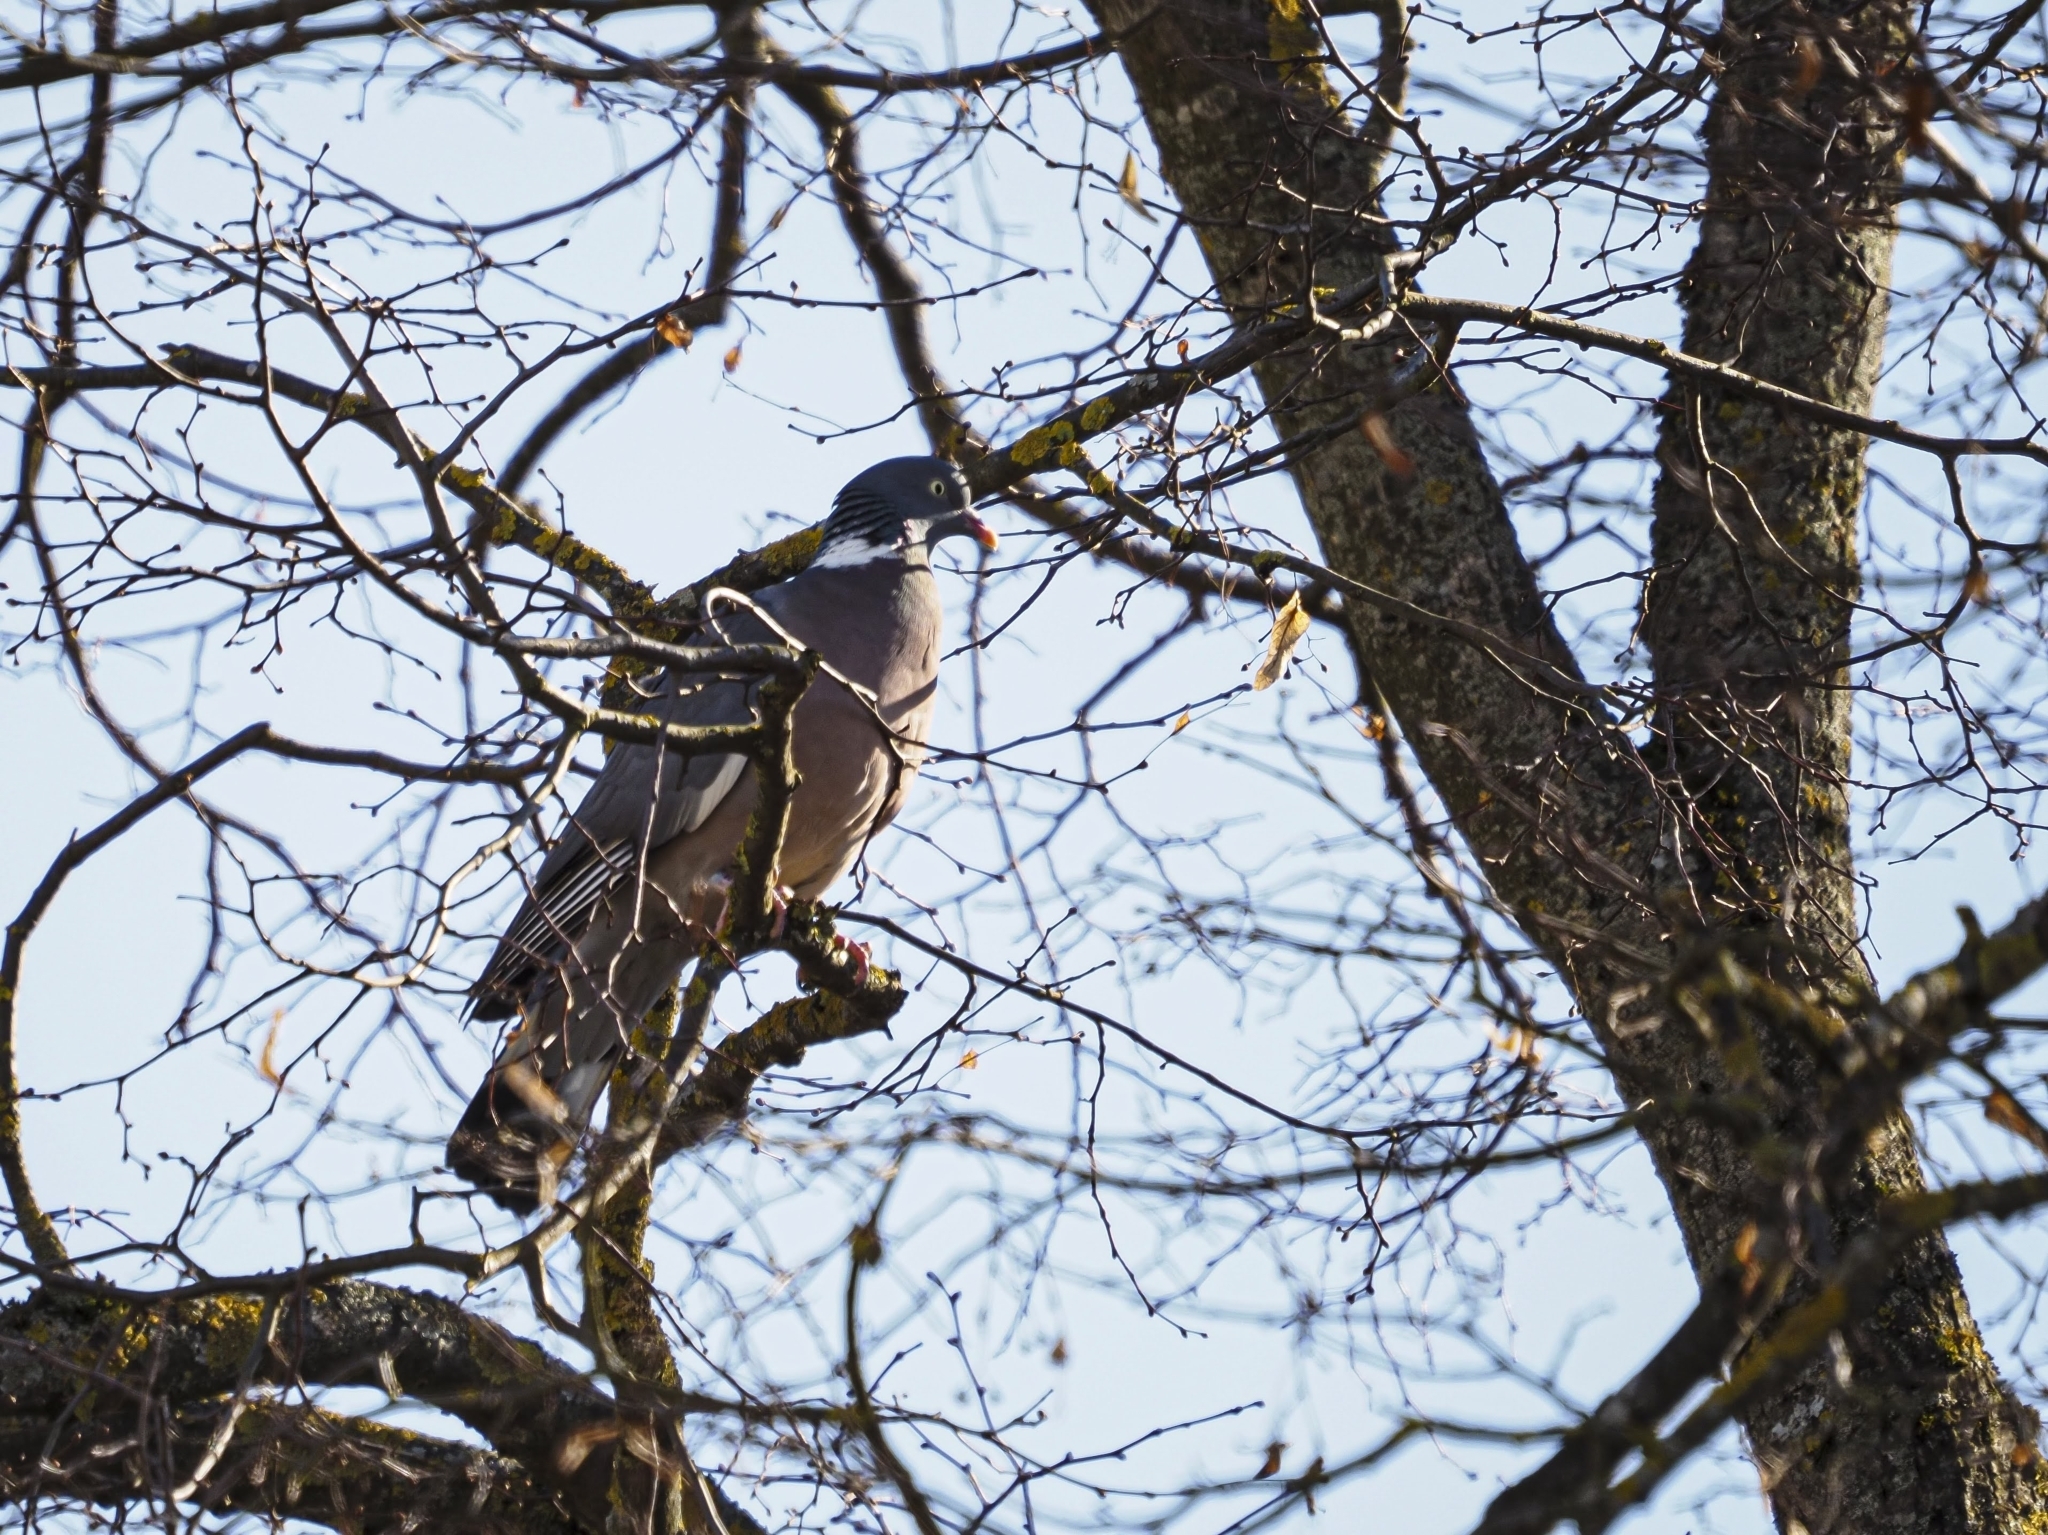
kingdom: Animalia
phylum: Chordata
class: Aves
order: Columbiformes
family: Columbidae
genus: Columba
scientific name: Columba palumbus
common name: Common wood pigeon
